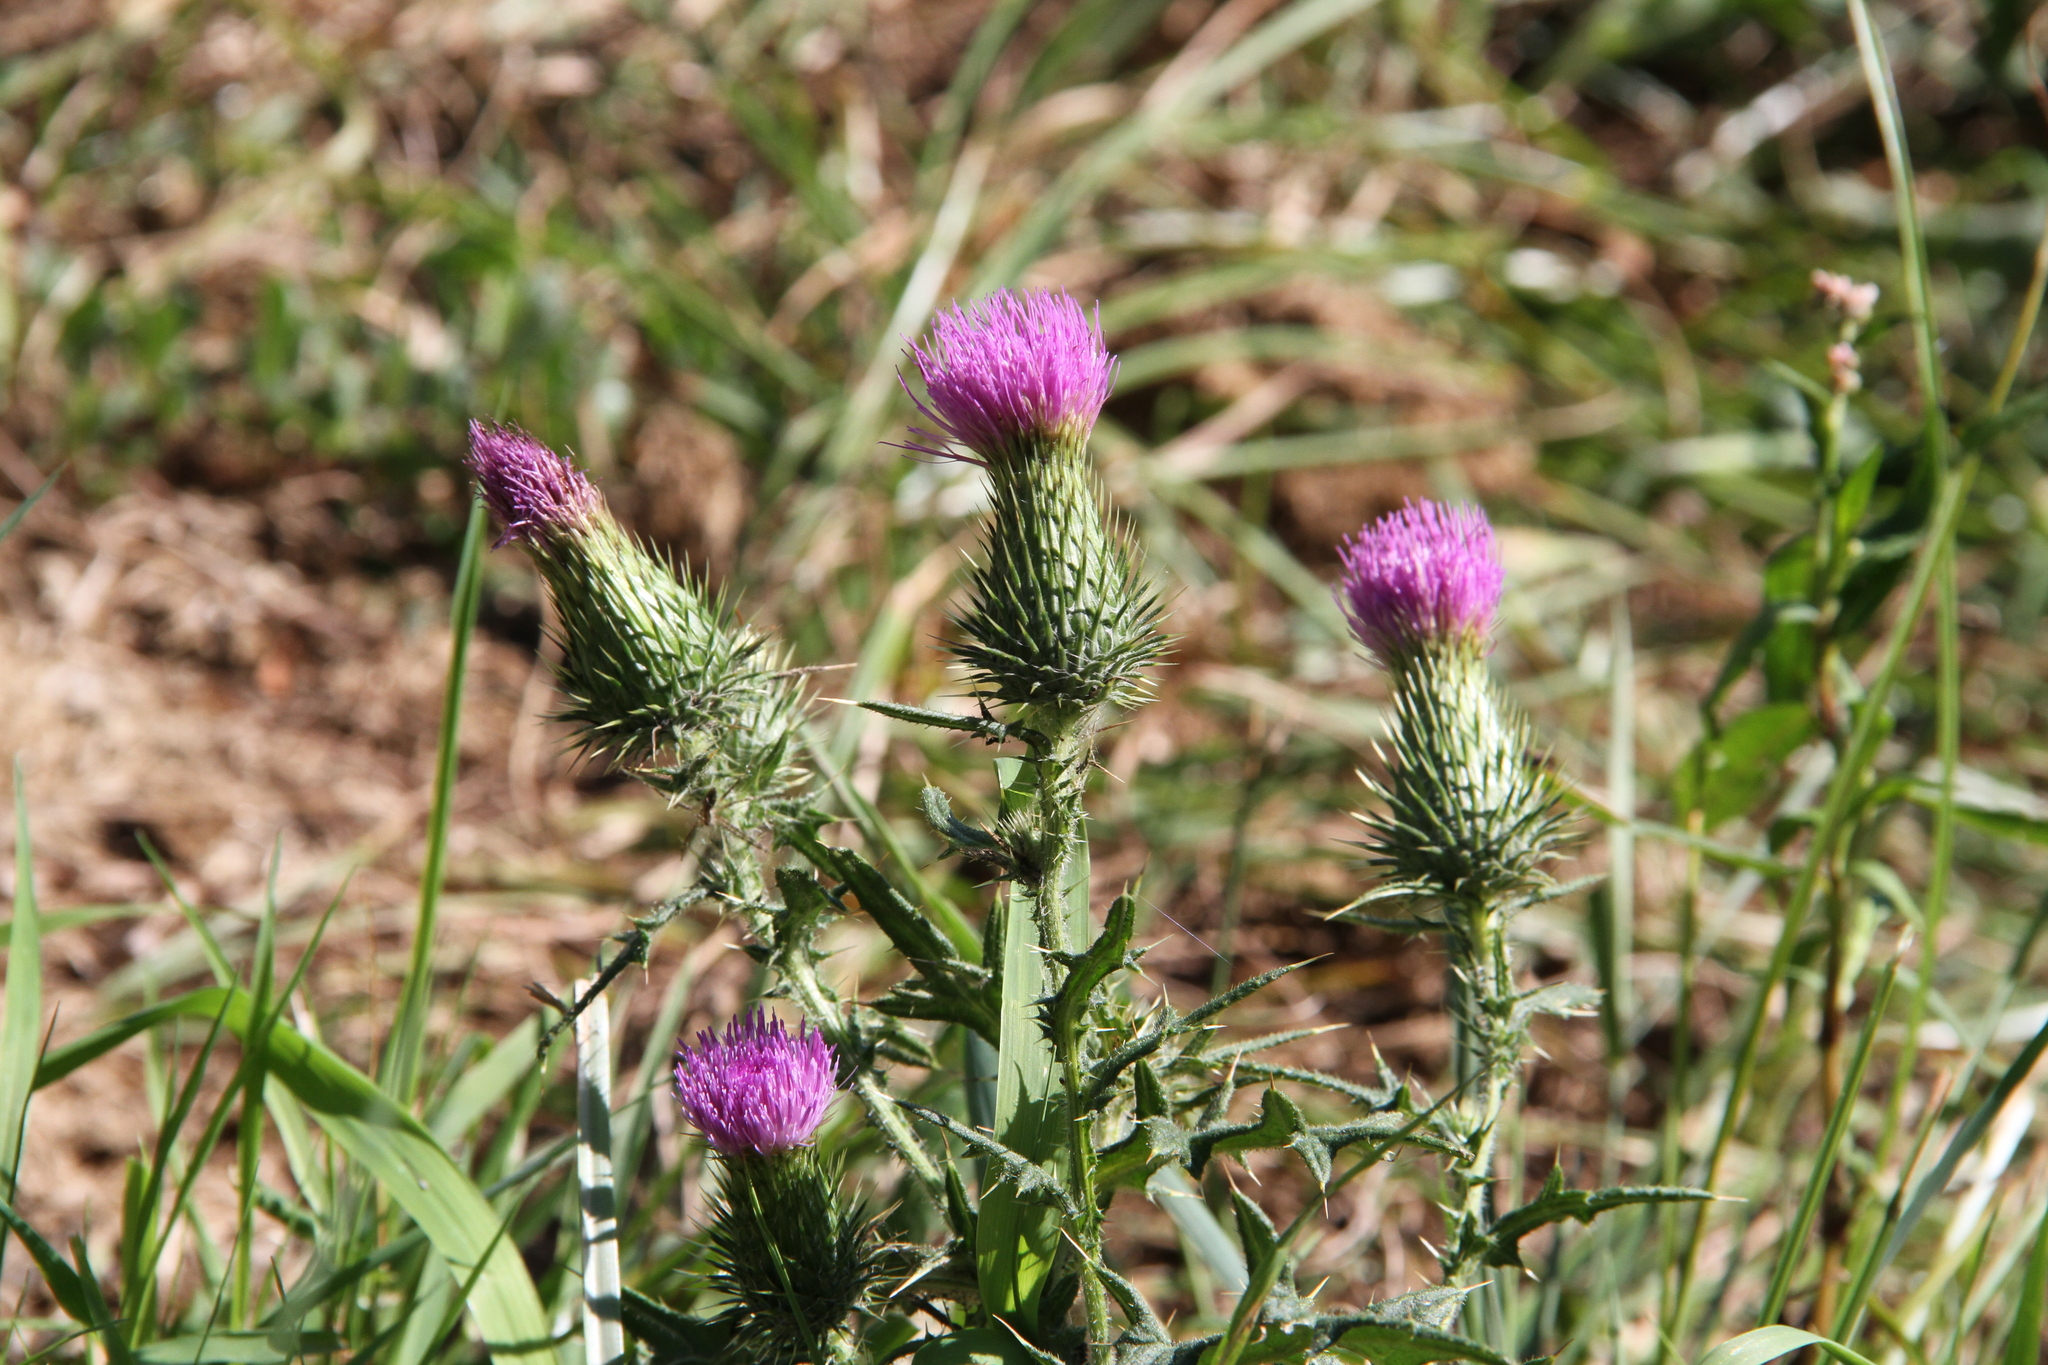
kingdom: Plantae
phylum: Tracheophyta
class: Magnoliopsida
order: Asterales
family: Asteraceae
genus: Cirsium
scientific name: Cirsium vulgare
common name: Bull thistle
